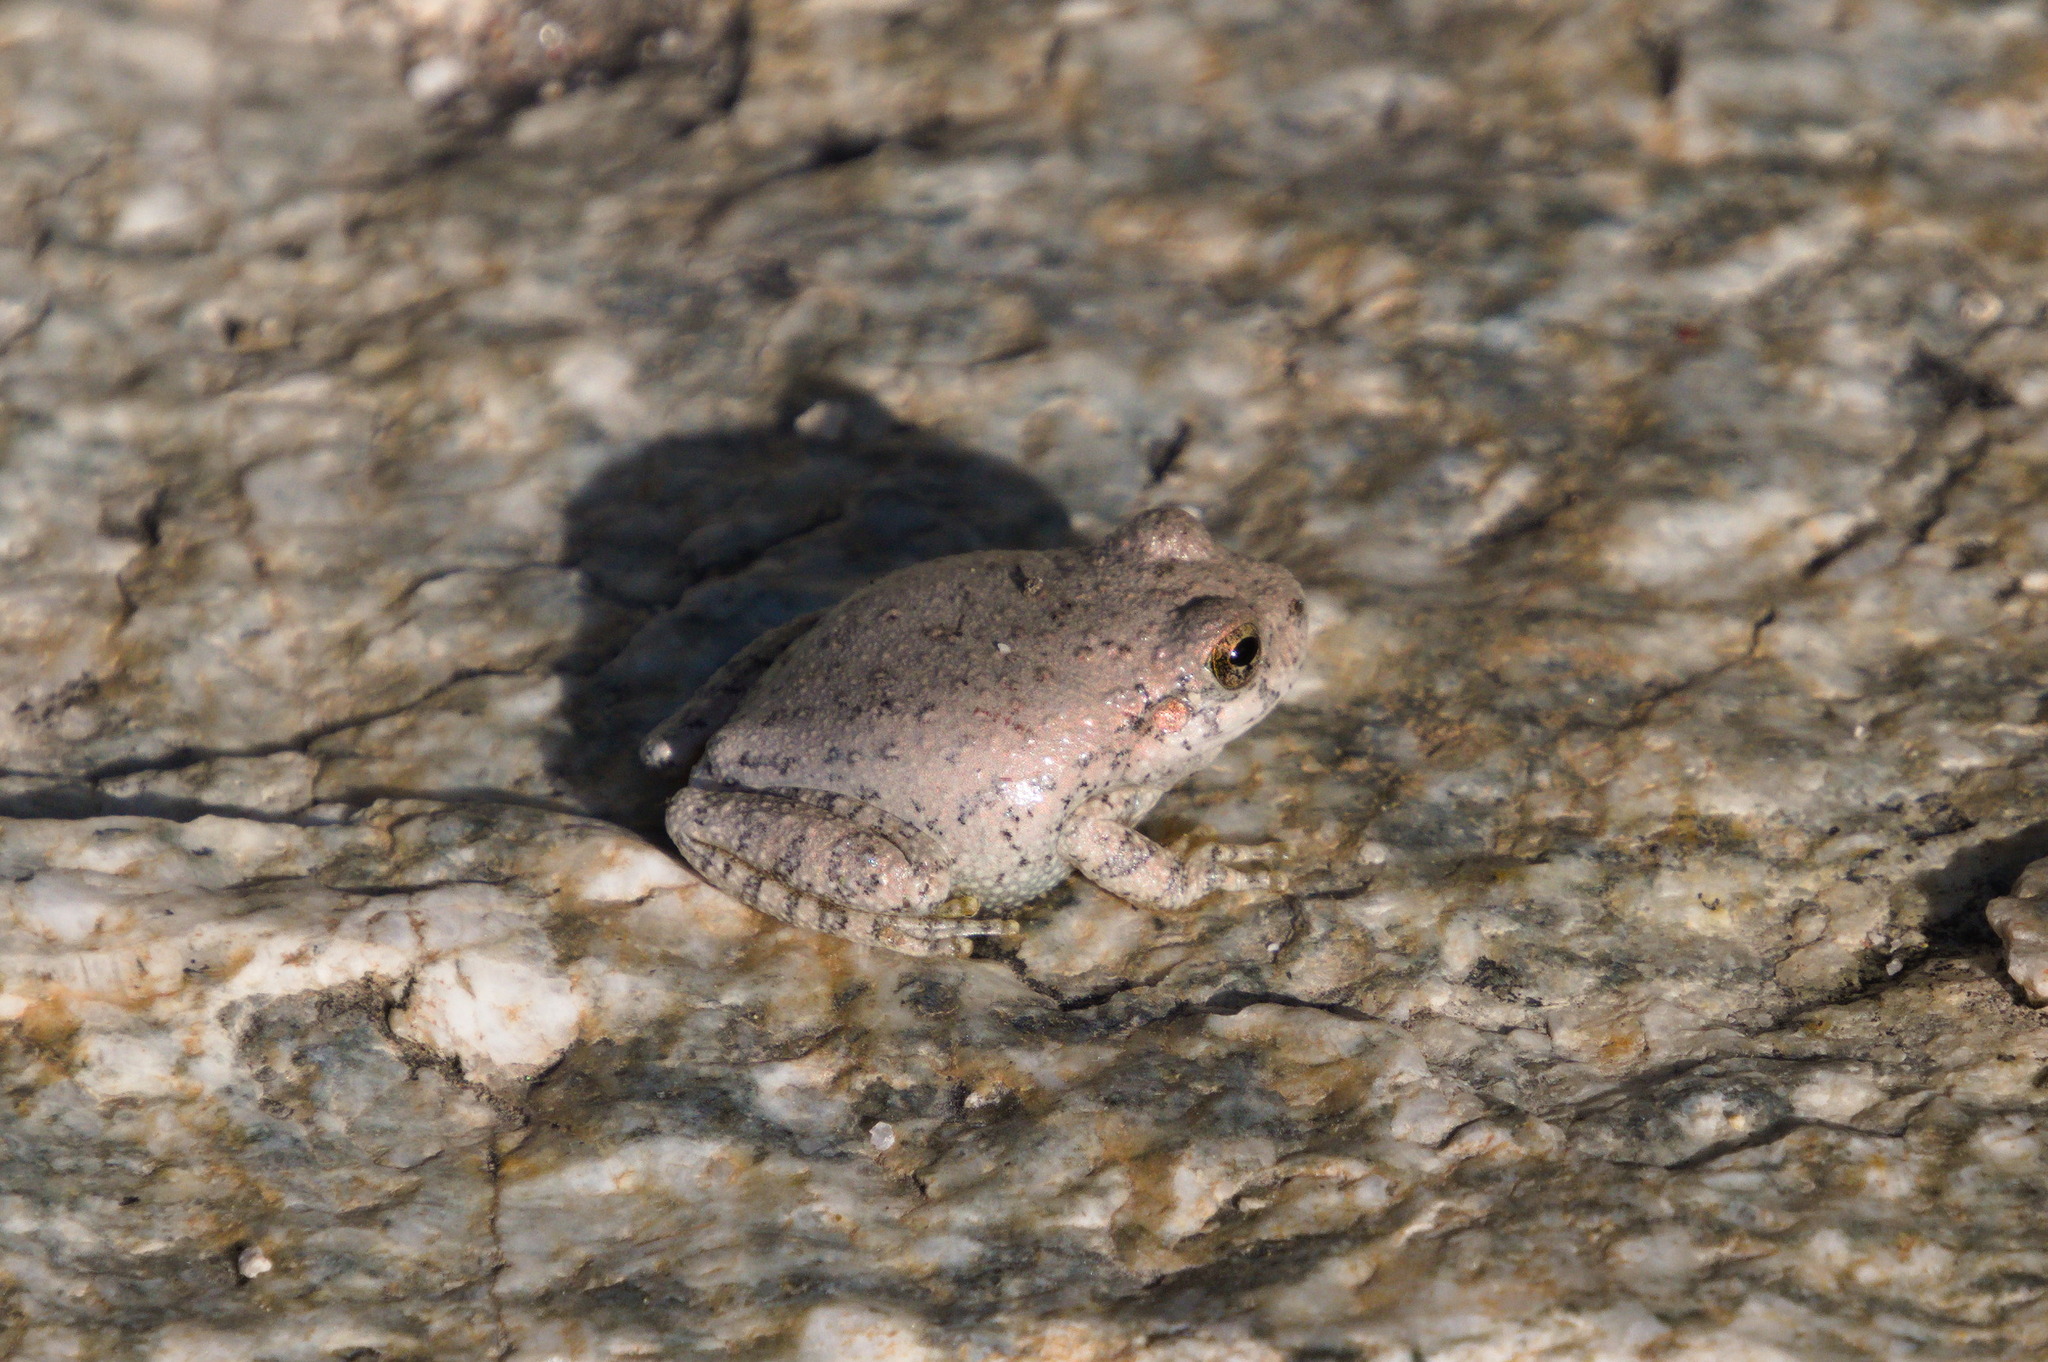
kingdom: Animalia
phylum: Chordata
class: Amphibia
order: Anura
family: Hylidae
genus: Dryophytes
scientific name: Dryophytes arenicolor
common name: Canyon treefrog
